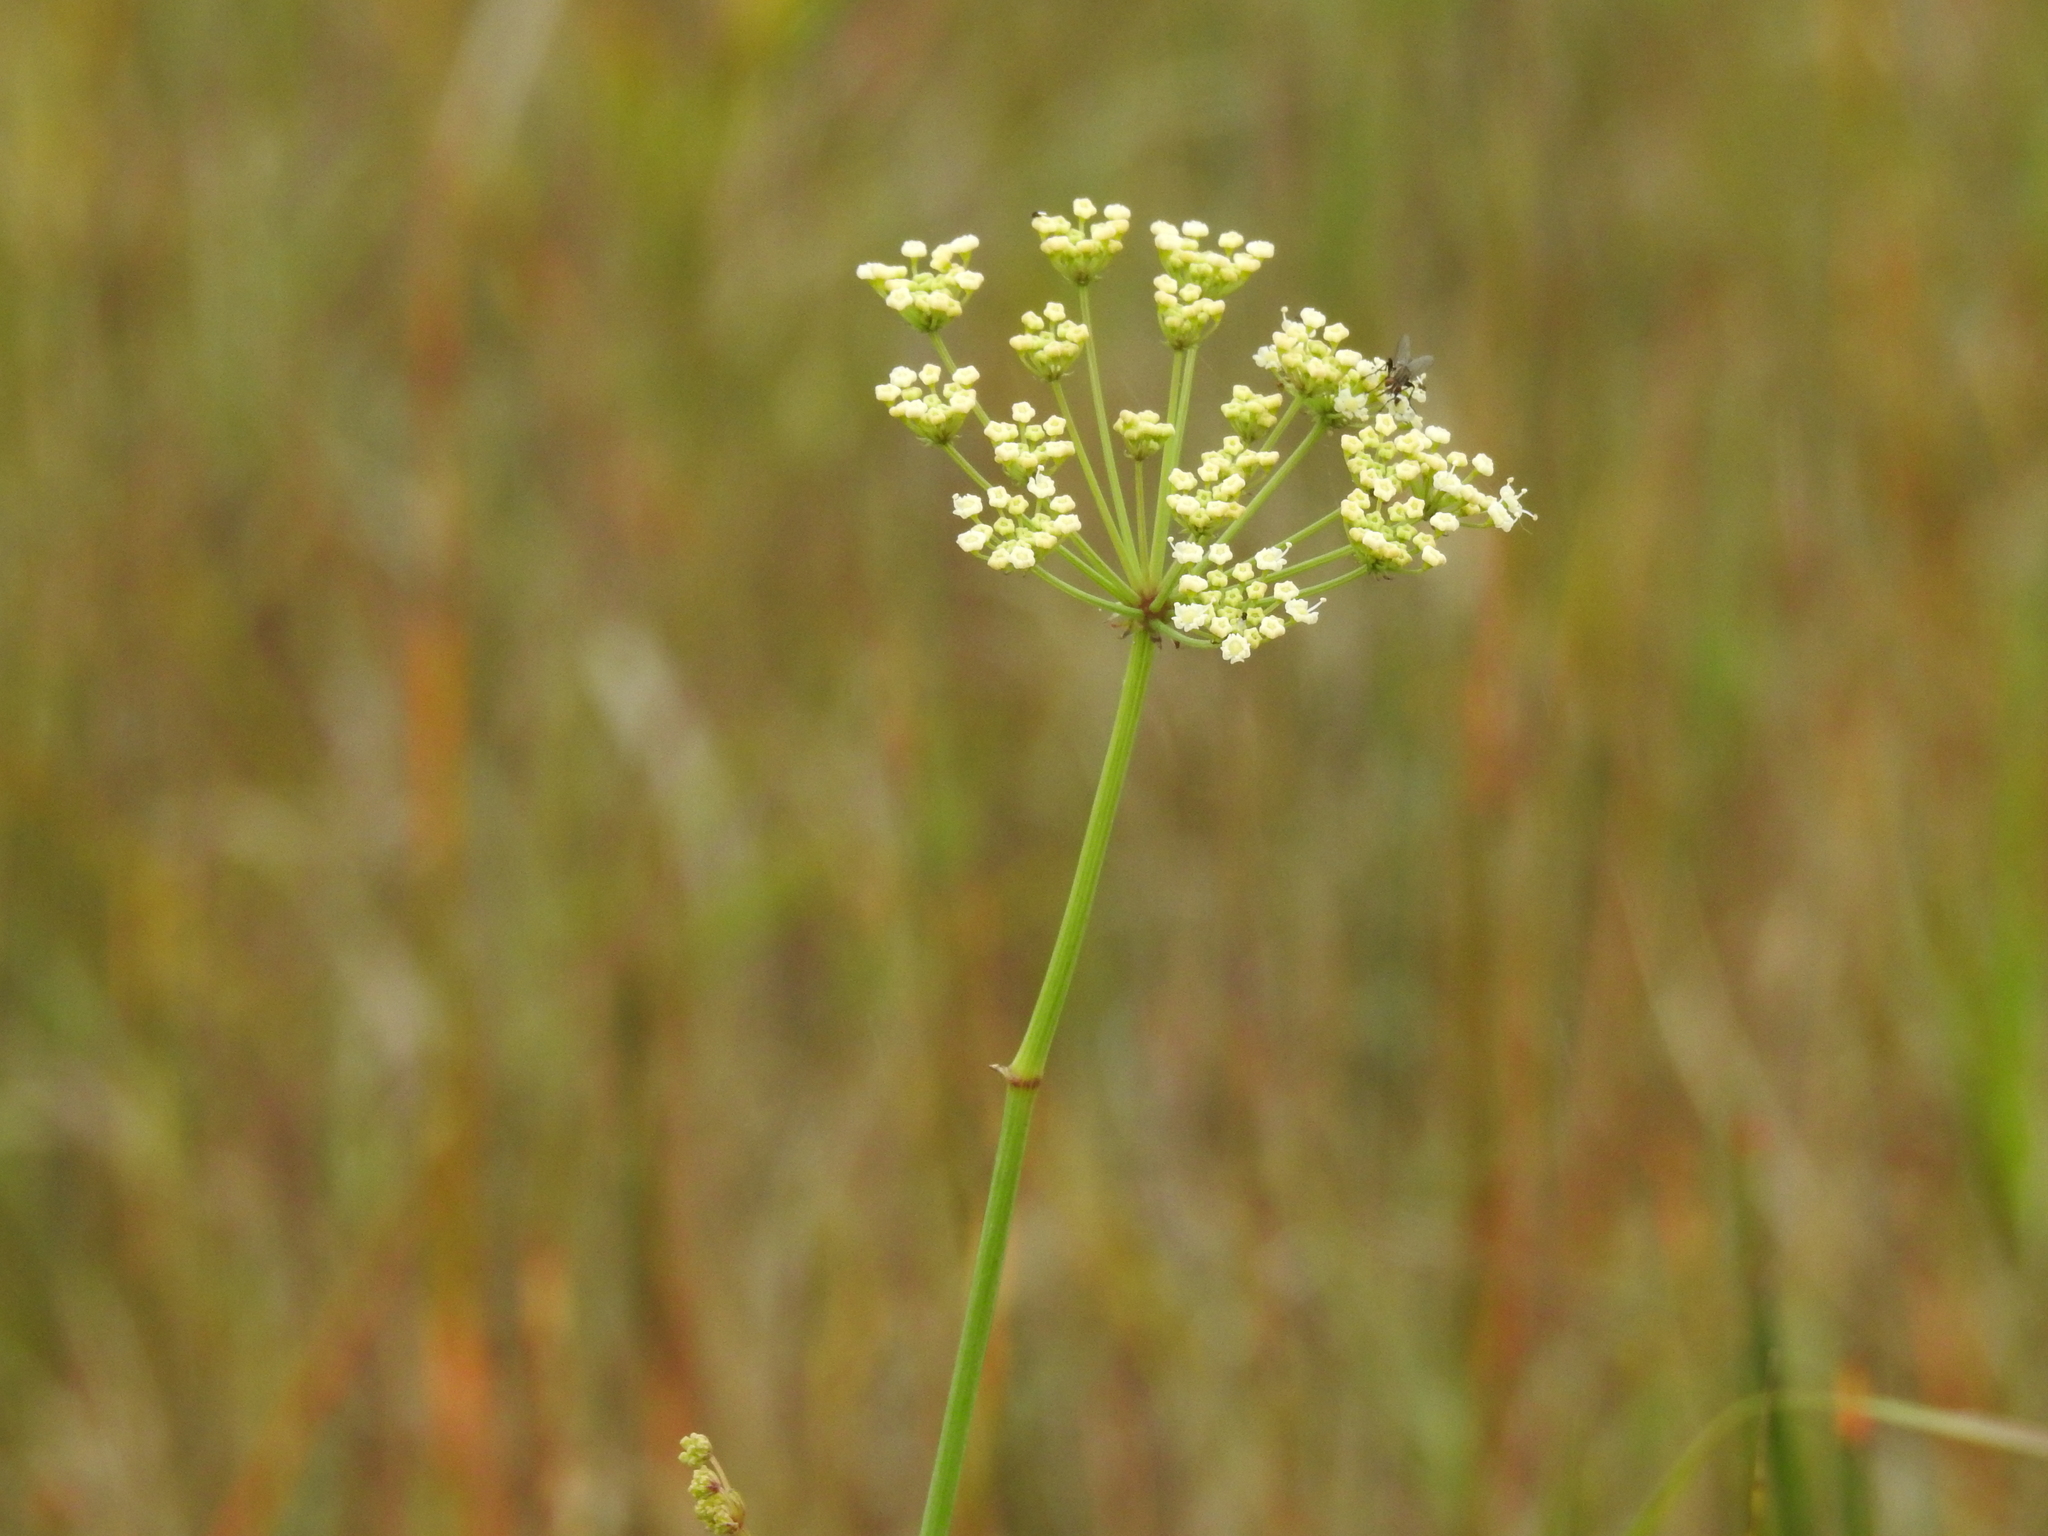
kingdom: Plantae
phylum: Tracheophyta
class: Magnoliopsida
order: Apiales
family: Apiaceae
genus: Tiedemannia
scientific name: Tiedemannia filiformis
